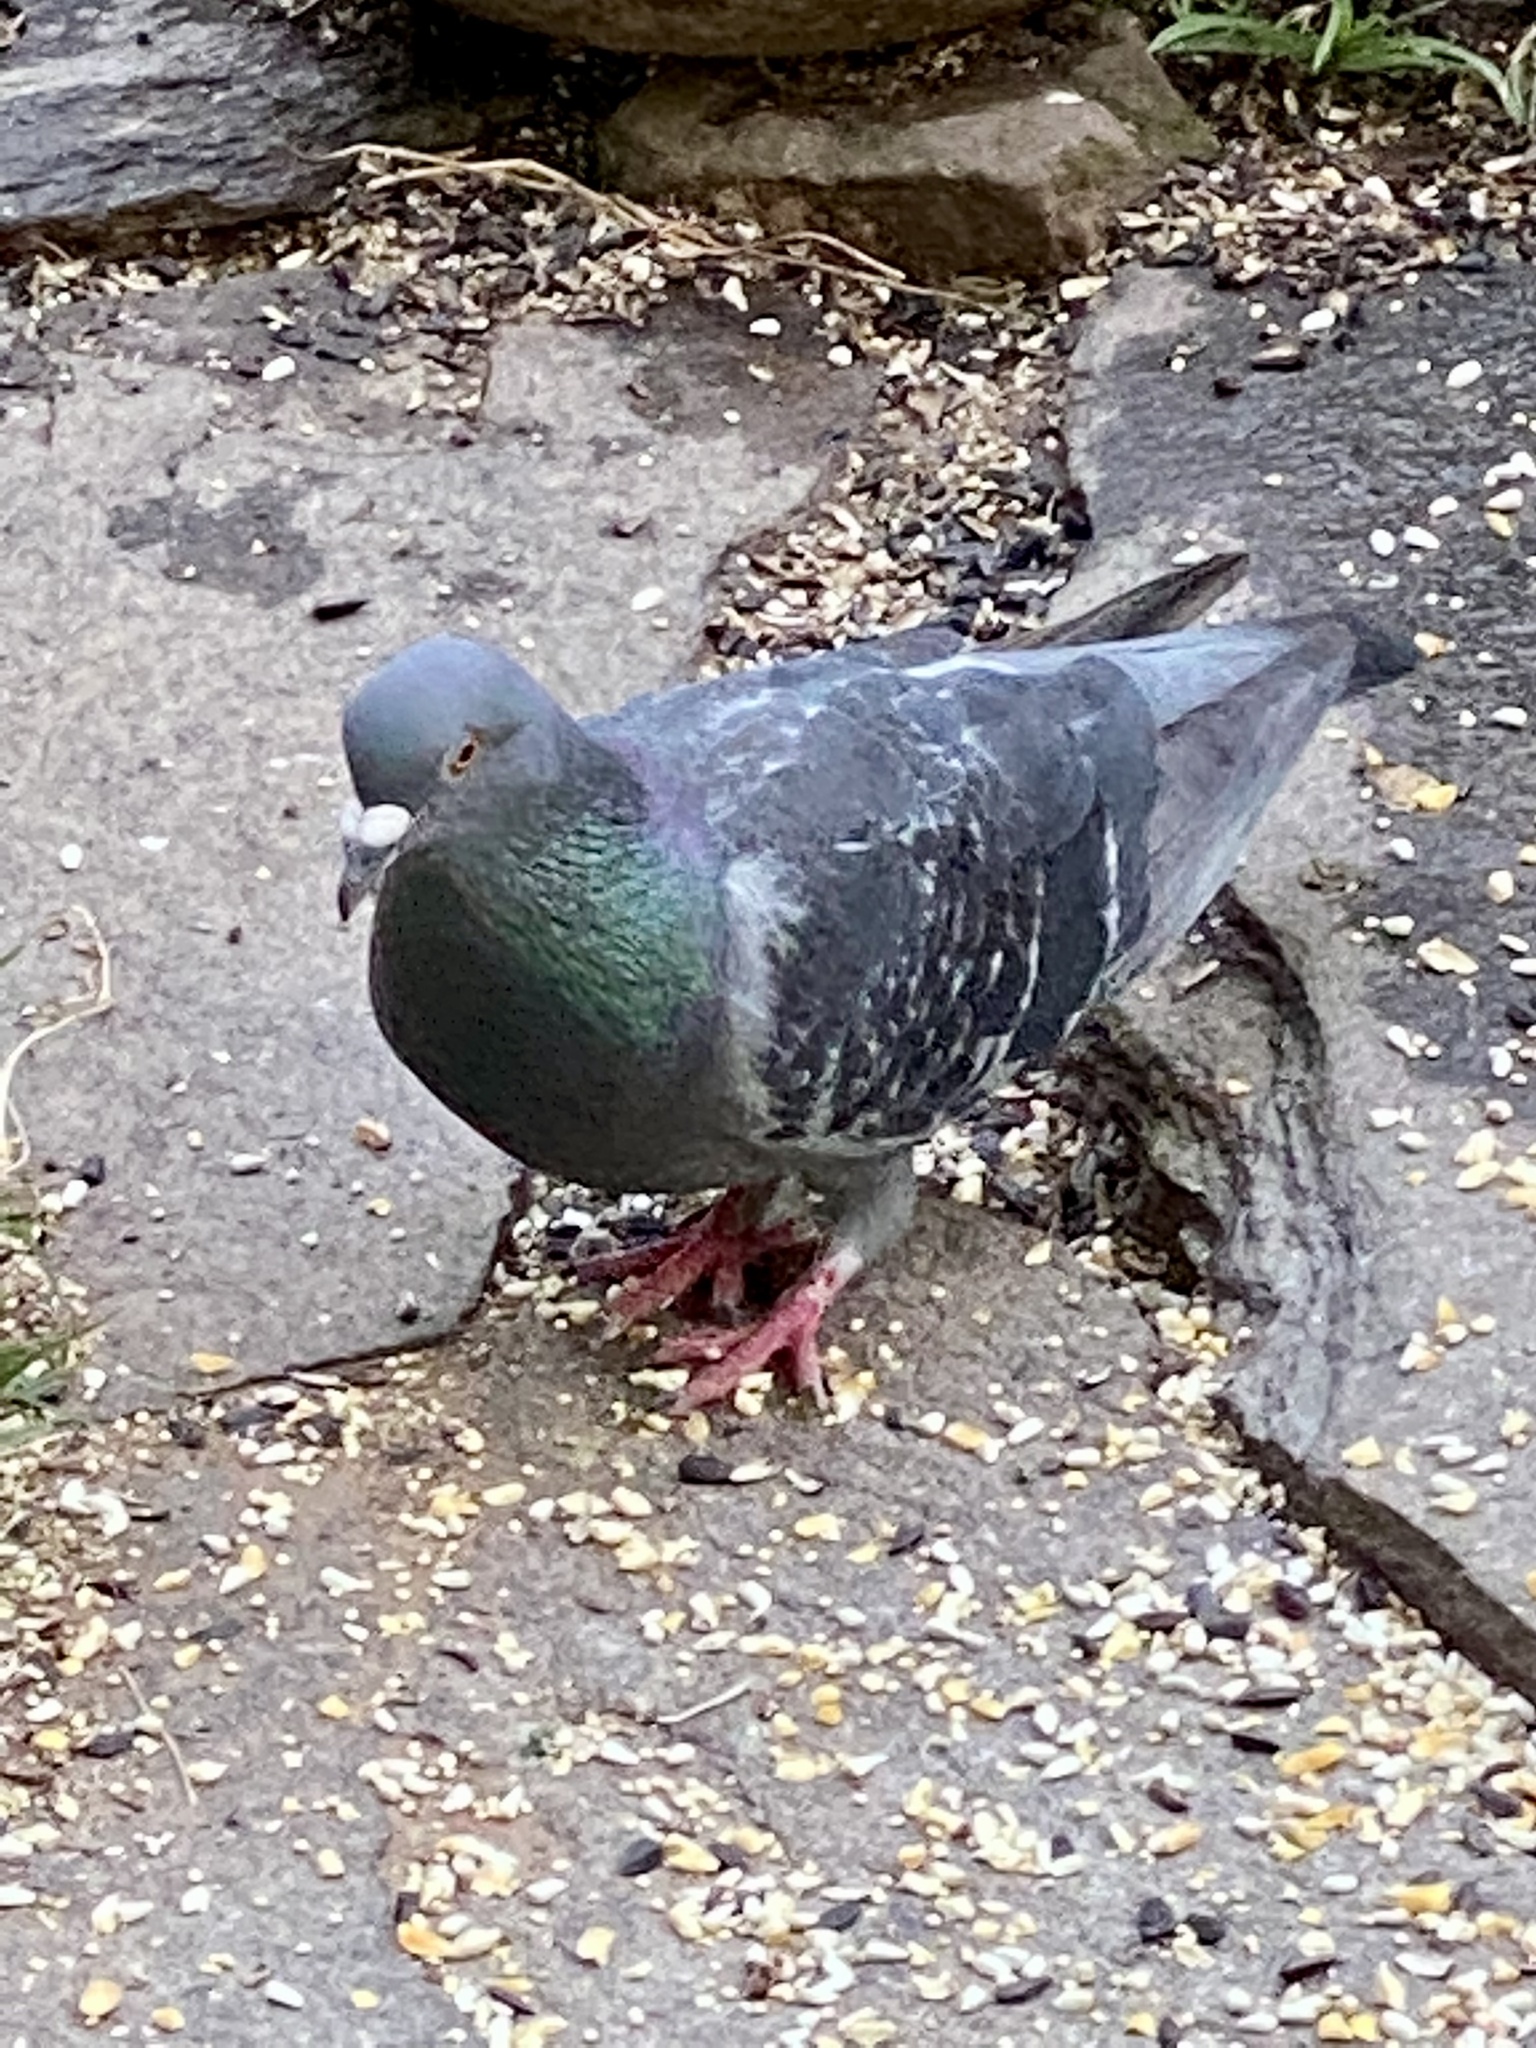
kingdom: Animalia
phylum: Chordata
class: Aves
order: Columbiformes
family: Columbidae
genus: Columba
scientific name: Columba livia
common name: Rock pigeon
